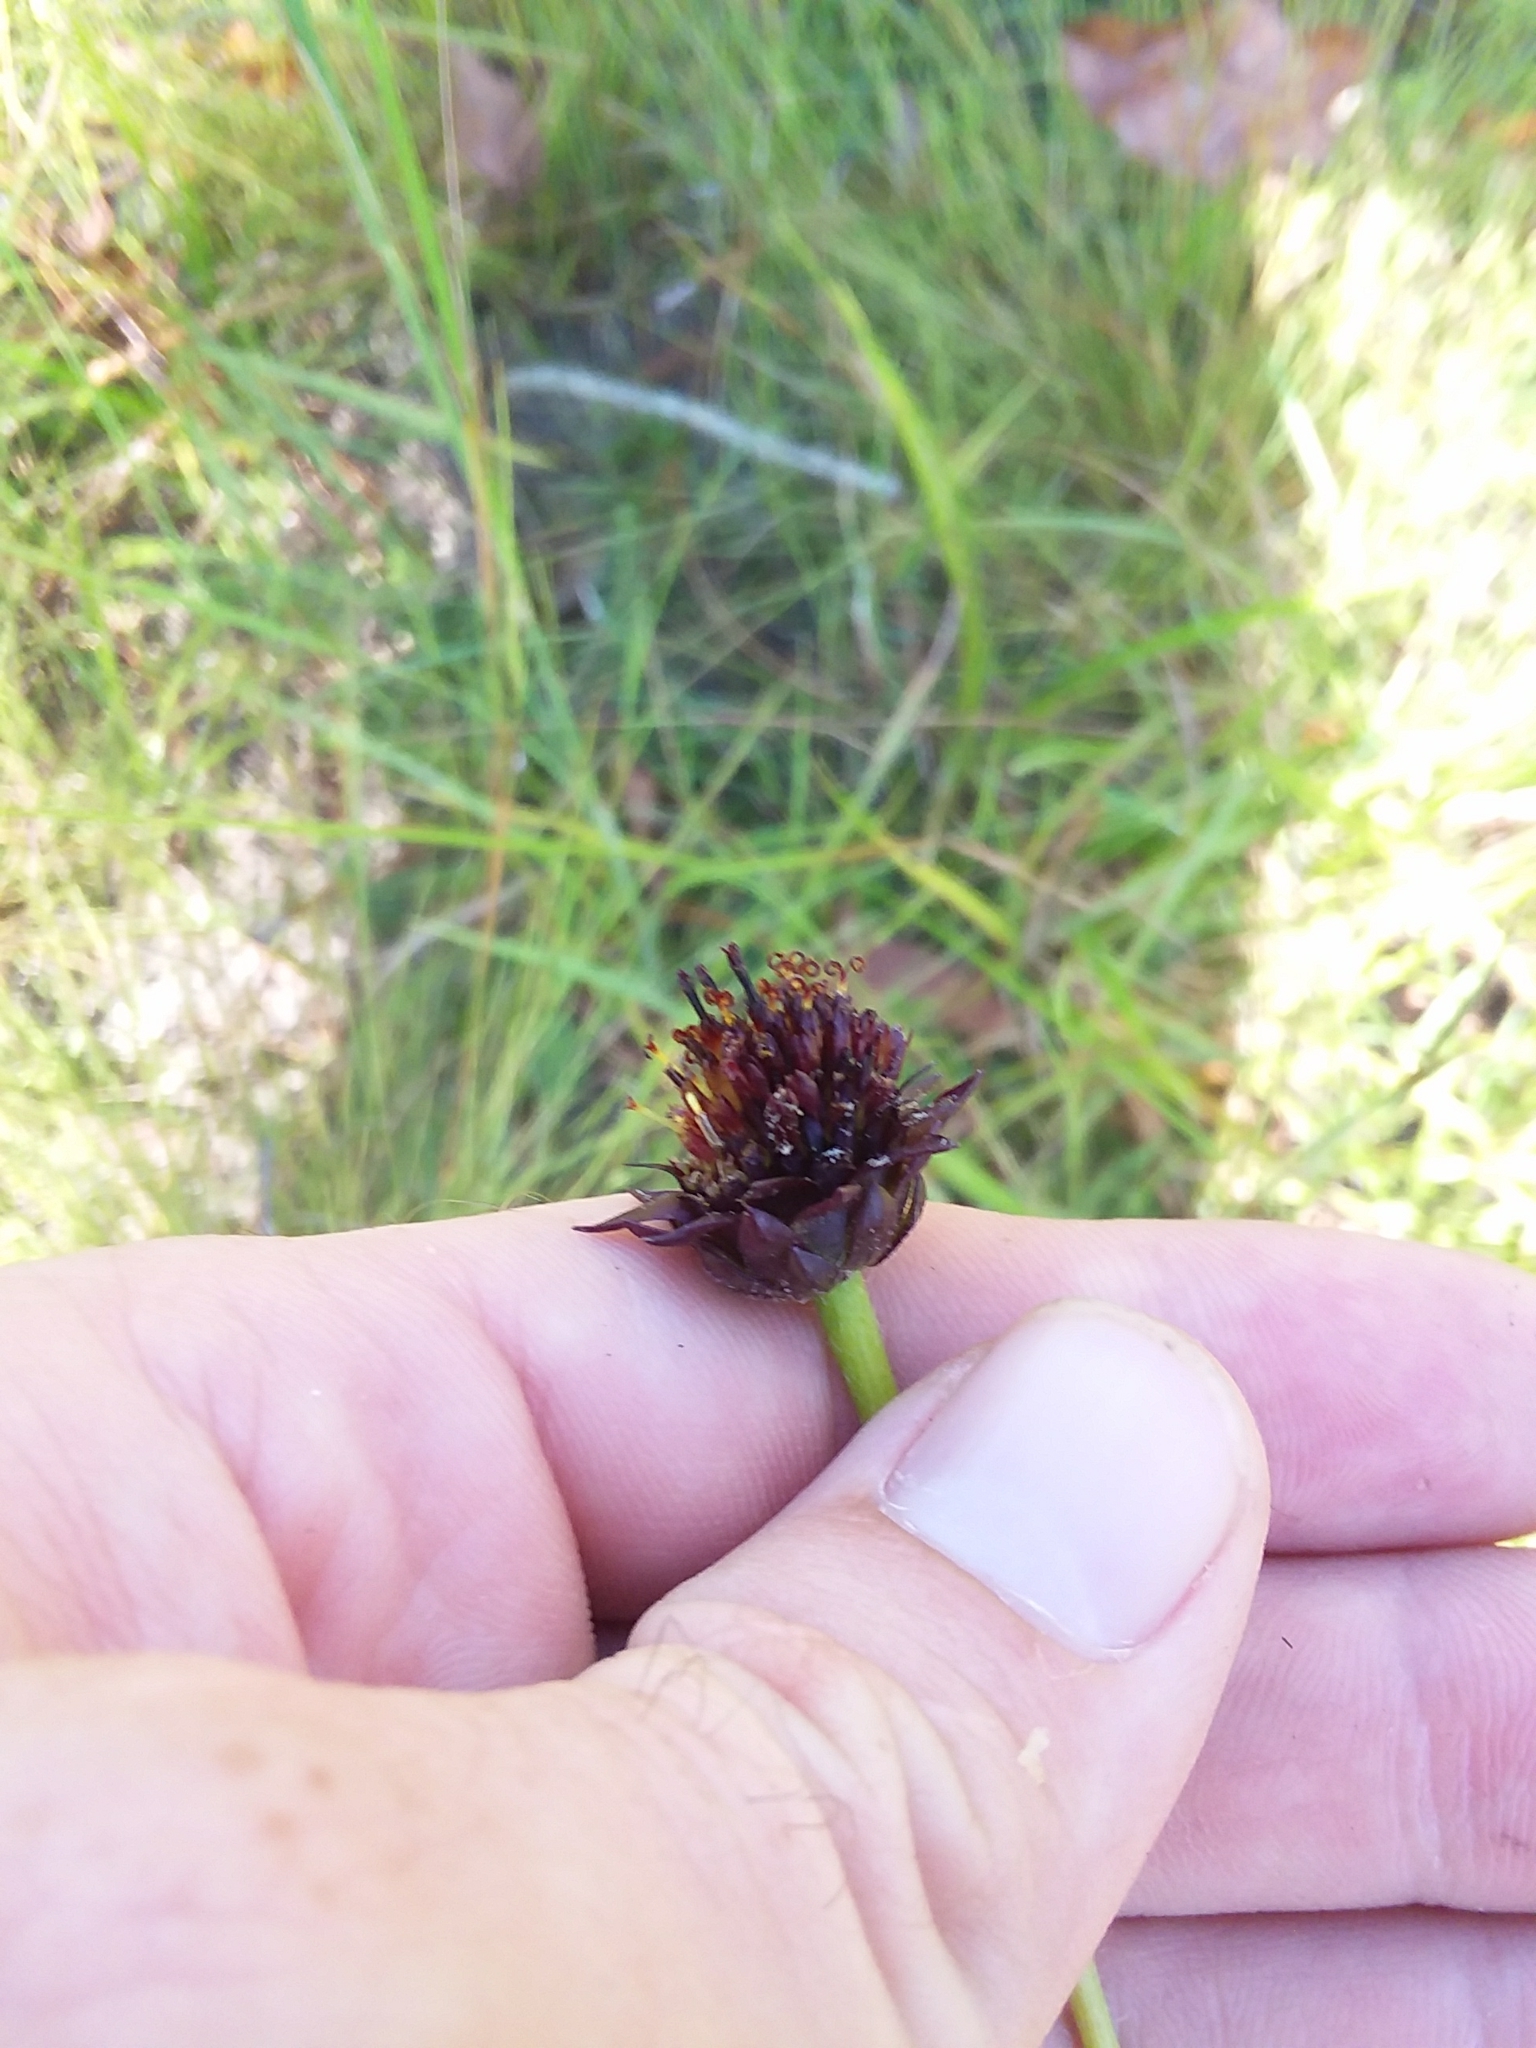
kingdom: Plantae
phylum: Tracheophyta
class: Magnoliopsida
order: Asterales
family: Asteraceae
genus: Helianthus
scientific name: Helianthus radula
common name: Pineland sunflower
